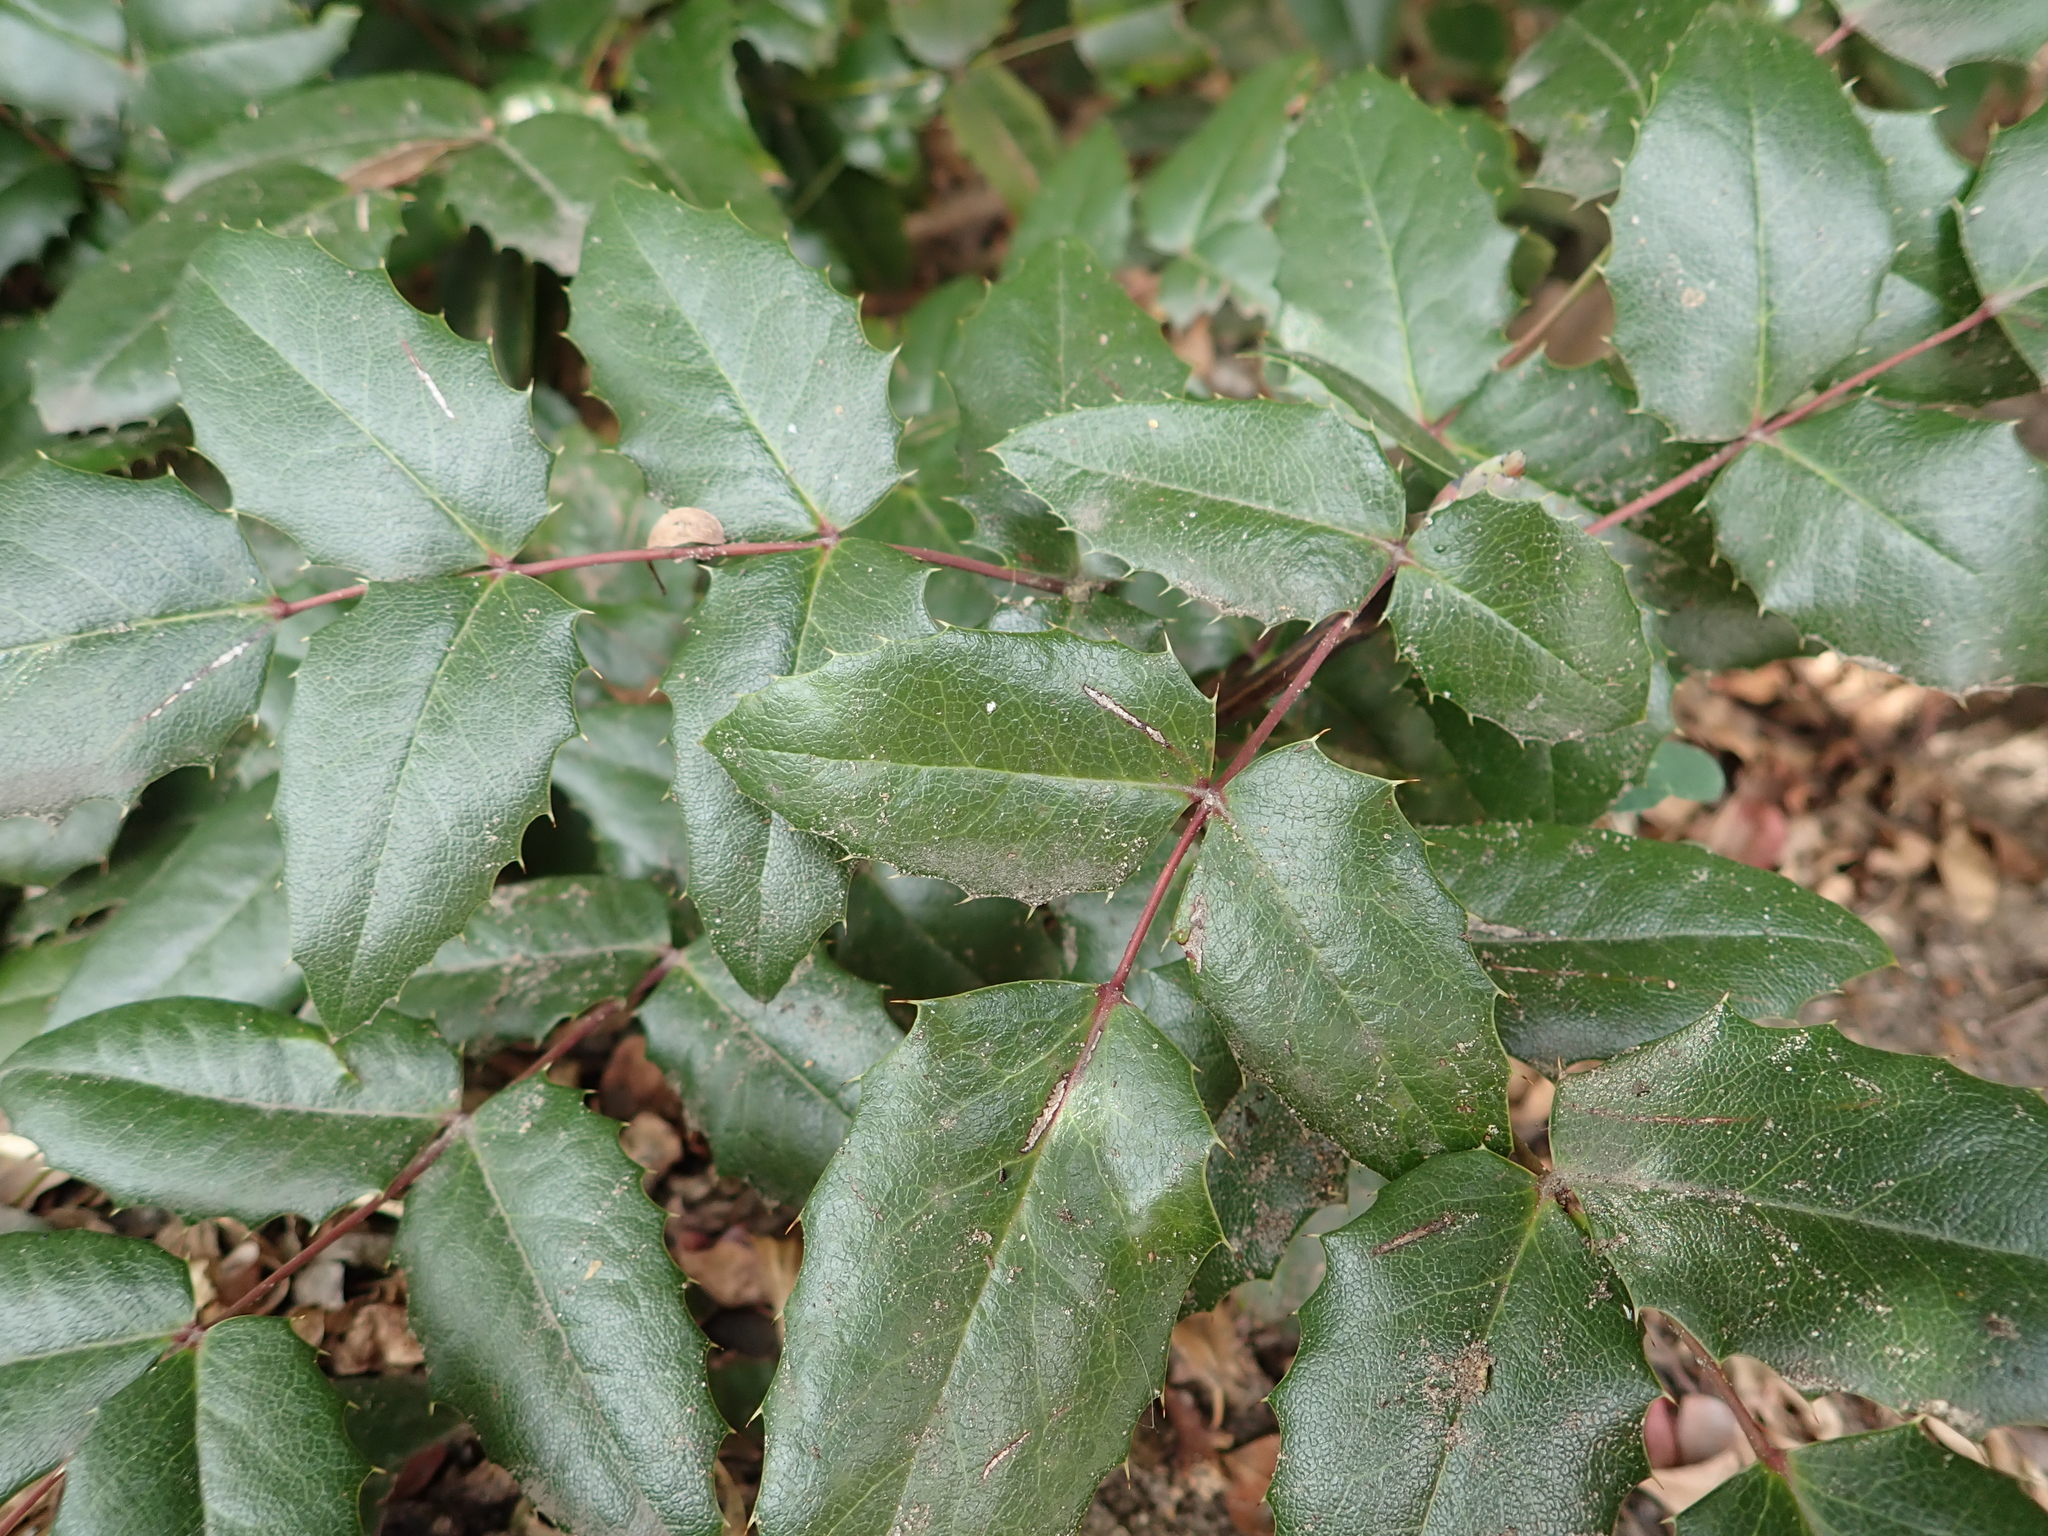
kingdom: Plantae
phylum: Tracheophyta
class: Magnoliopsida
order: Ranunculales
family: Berberidaceae
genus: Mahonia
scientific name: Mahonia aquifolium
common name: Oregon-grape
